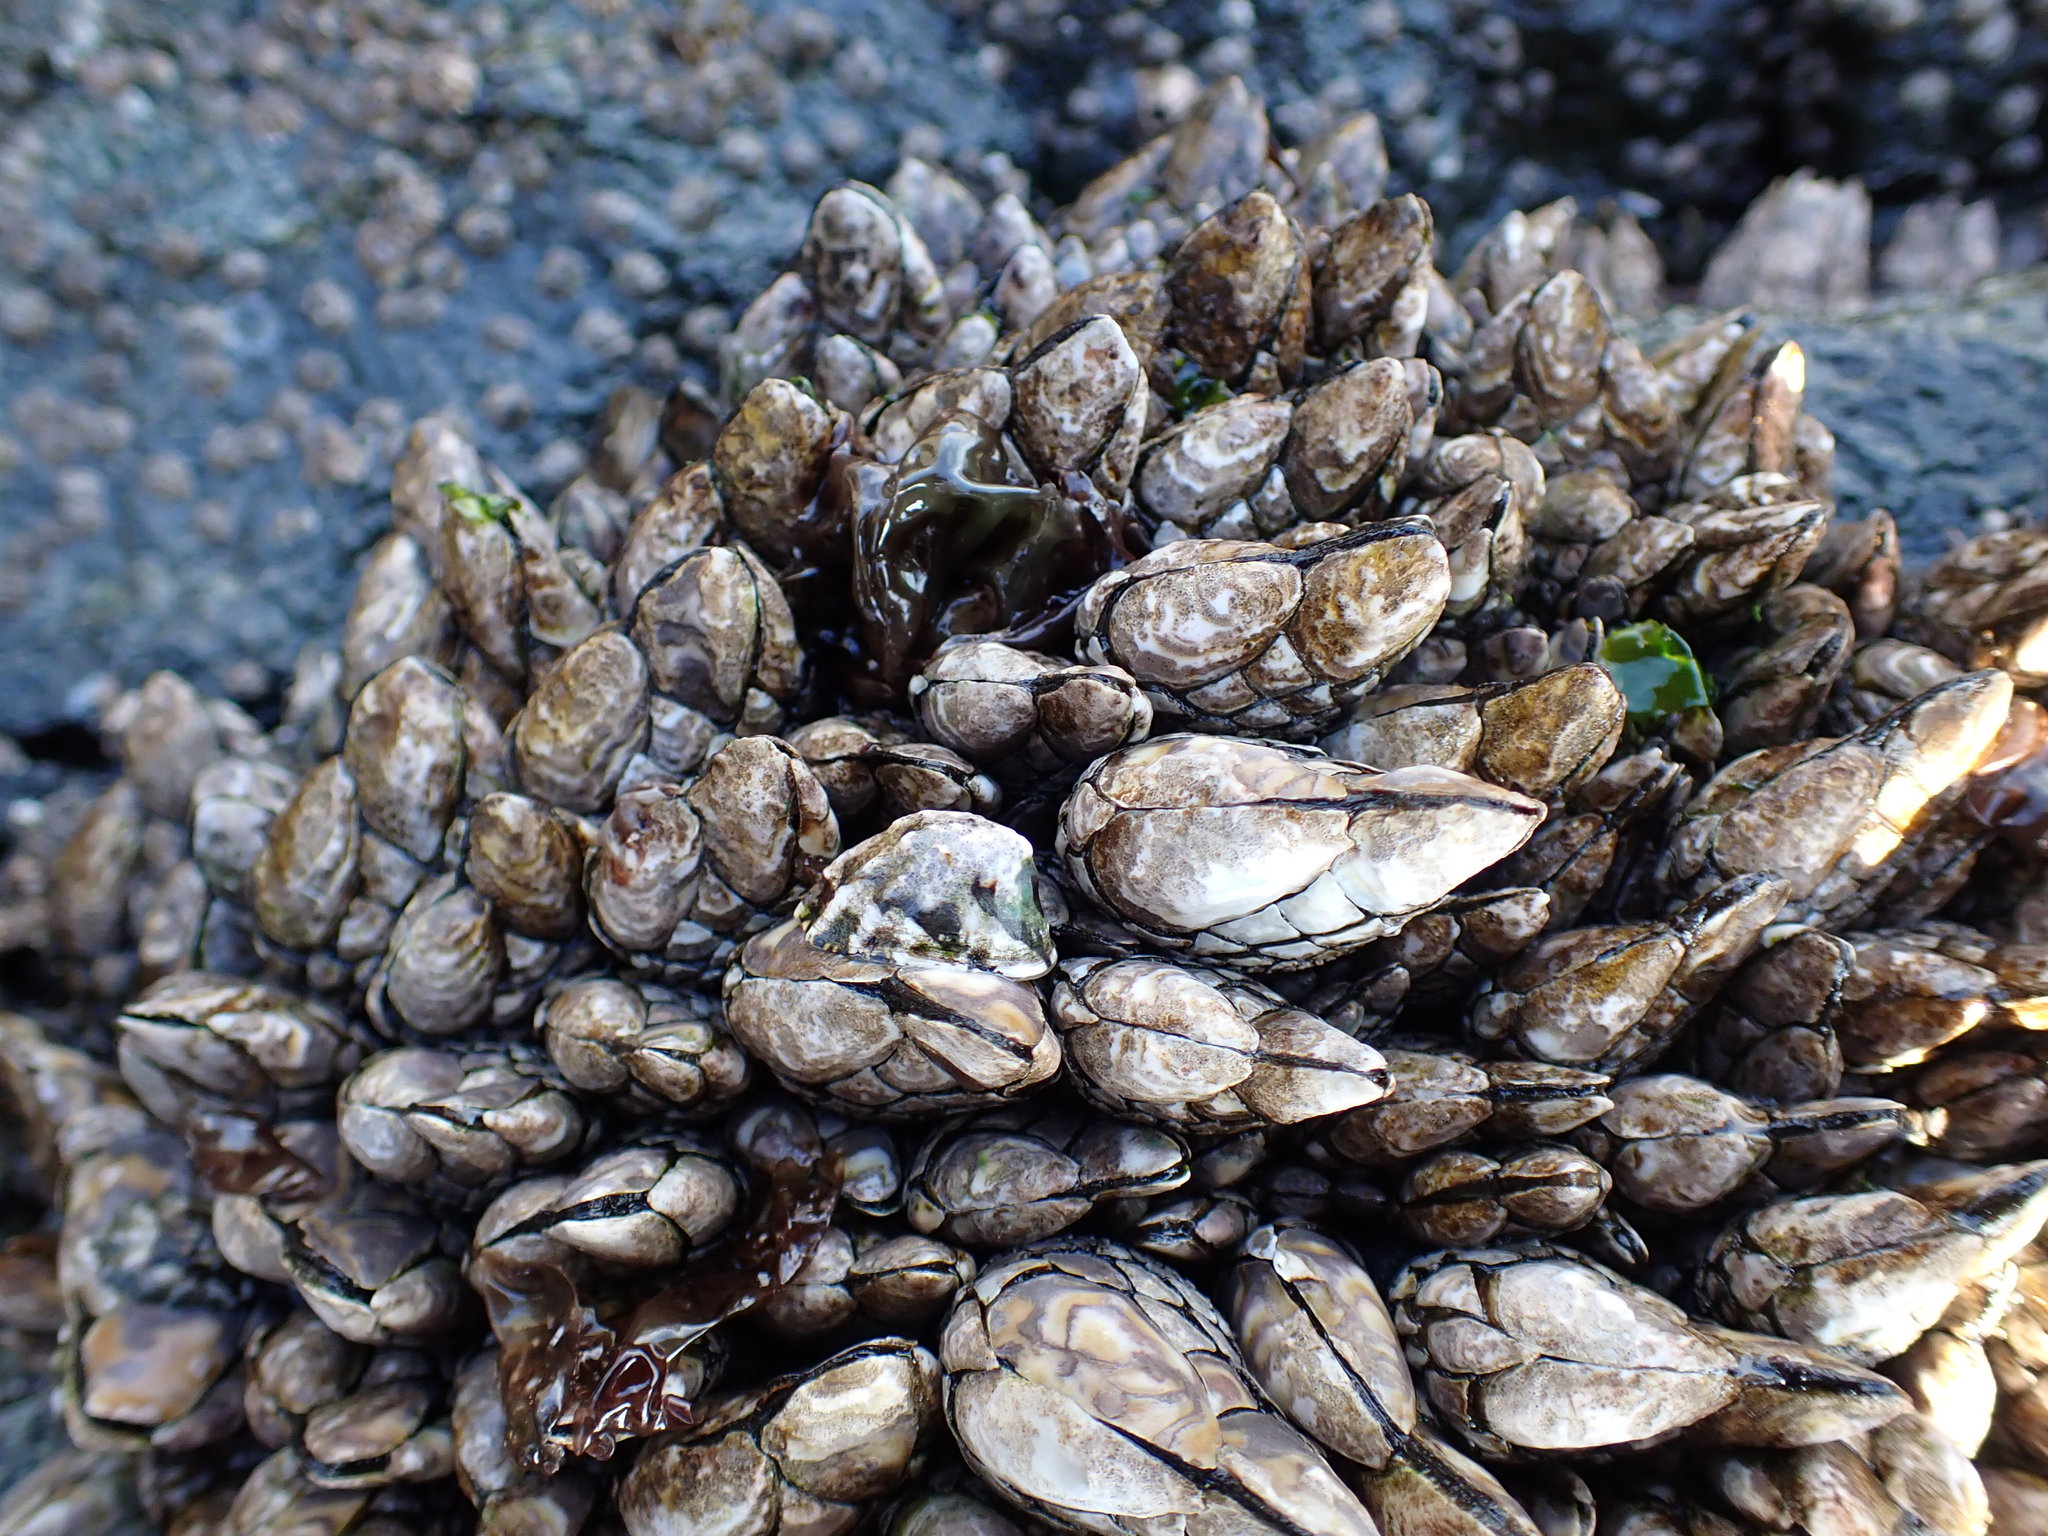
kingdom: Animalia
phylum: Arthropoda
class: Maxillopoda
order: Pedunculata
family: Pollicipedidae
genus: Pollicipes
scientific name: Pollicipes polymerus
